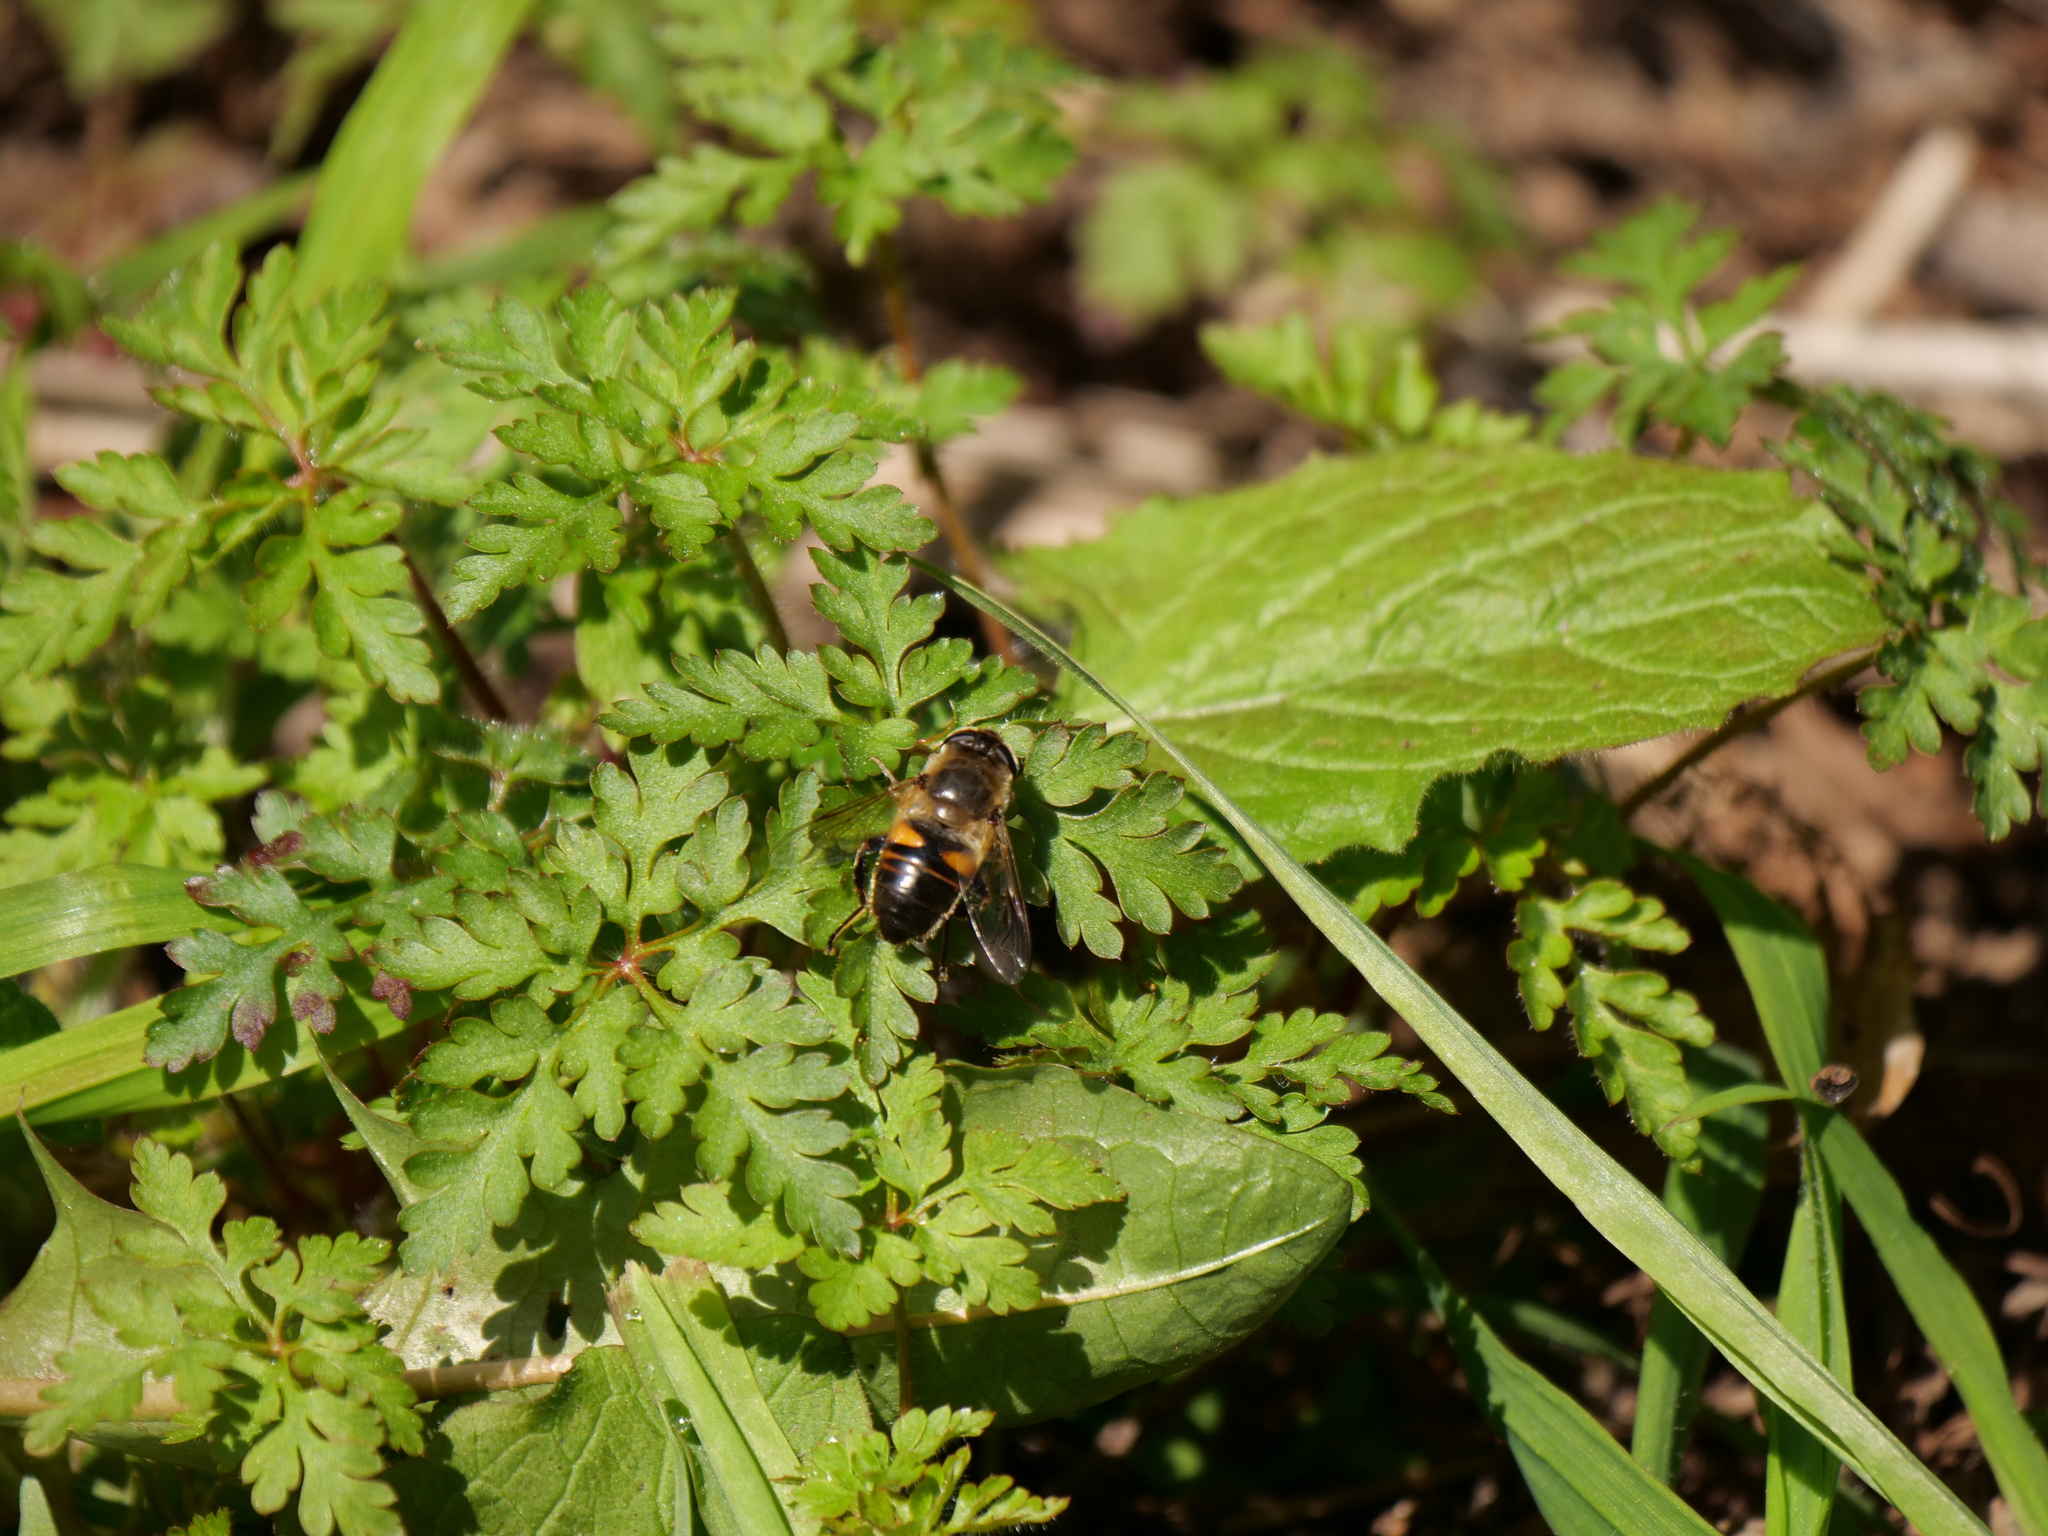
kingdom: Animalia
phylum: Arthropoda
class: Insecta
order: Diptera
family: Syrphidae
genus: Eristalis
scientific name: Eristalis tenax
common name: Drone fly
